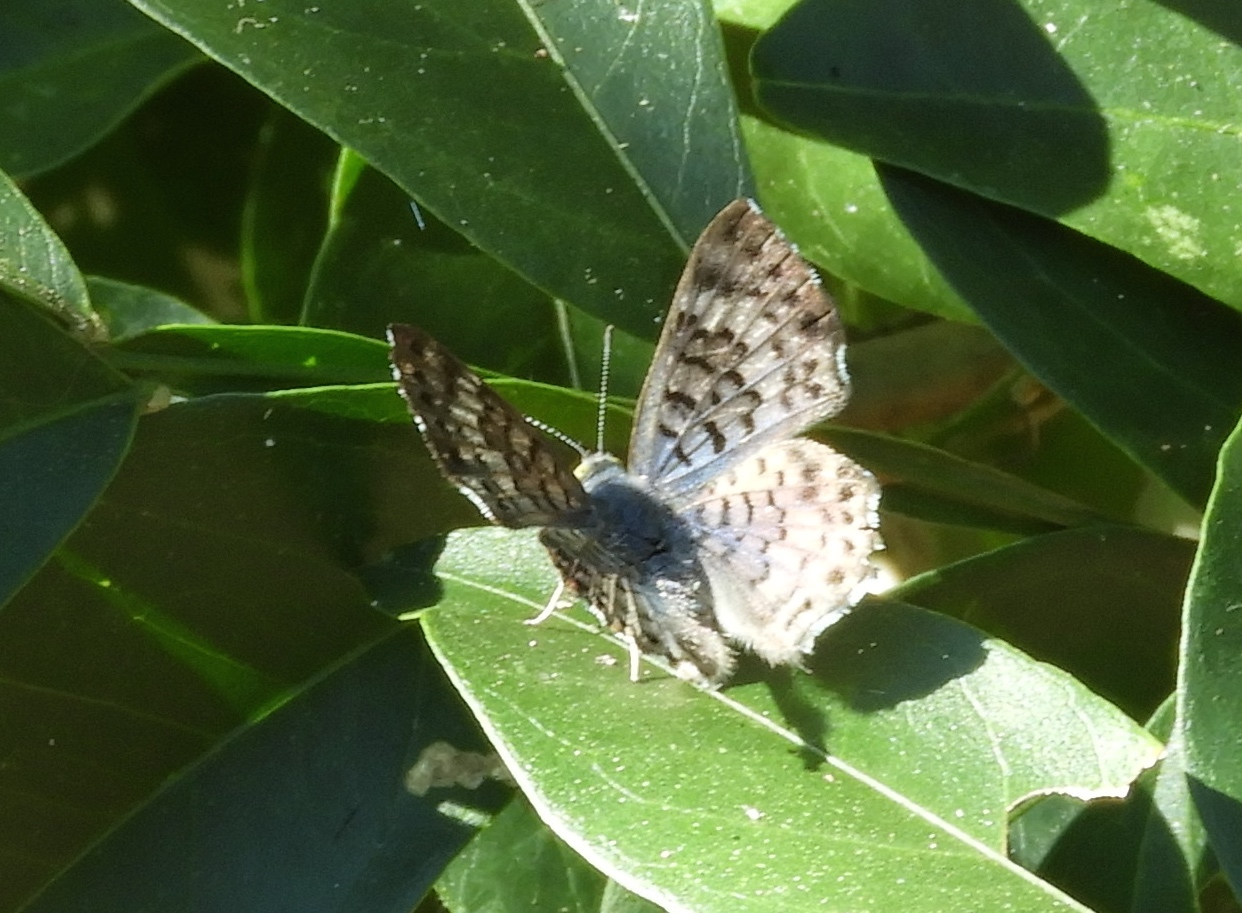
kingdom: Animalia
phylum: Arthropoda
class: Insecta
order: Lepidoptera
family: Riodinidae
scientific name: Riodinidae
